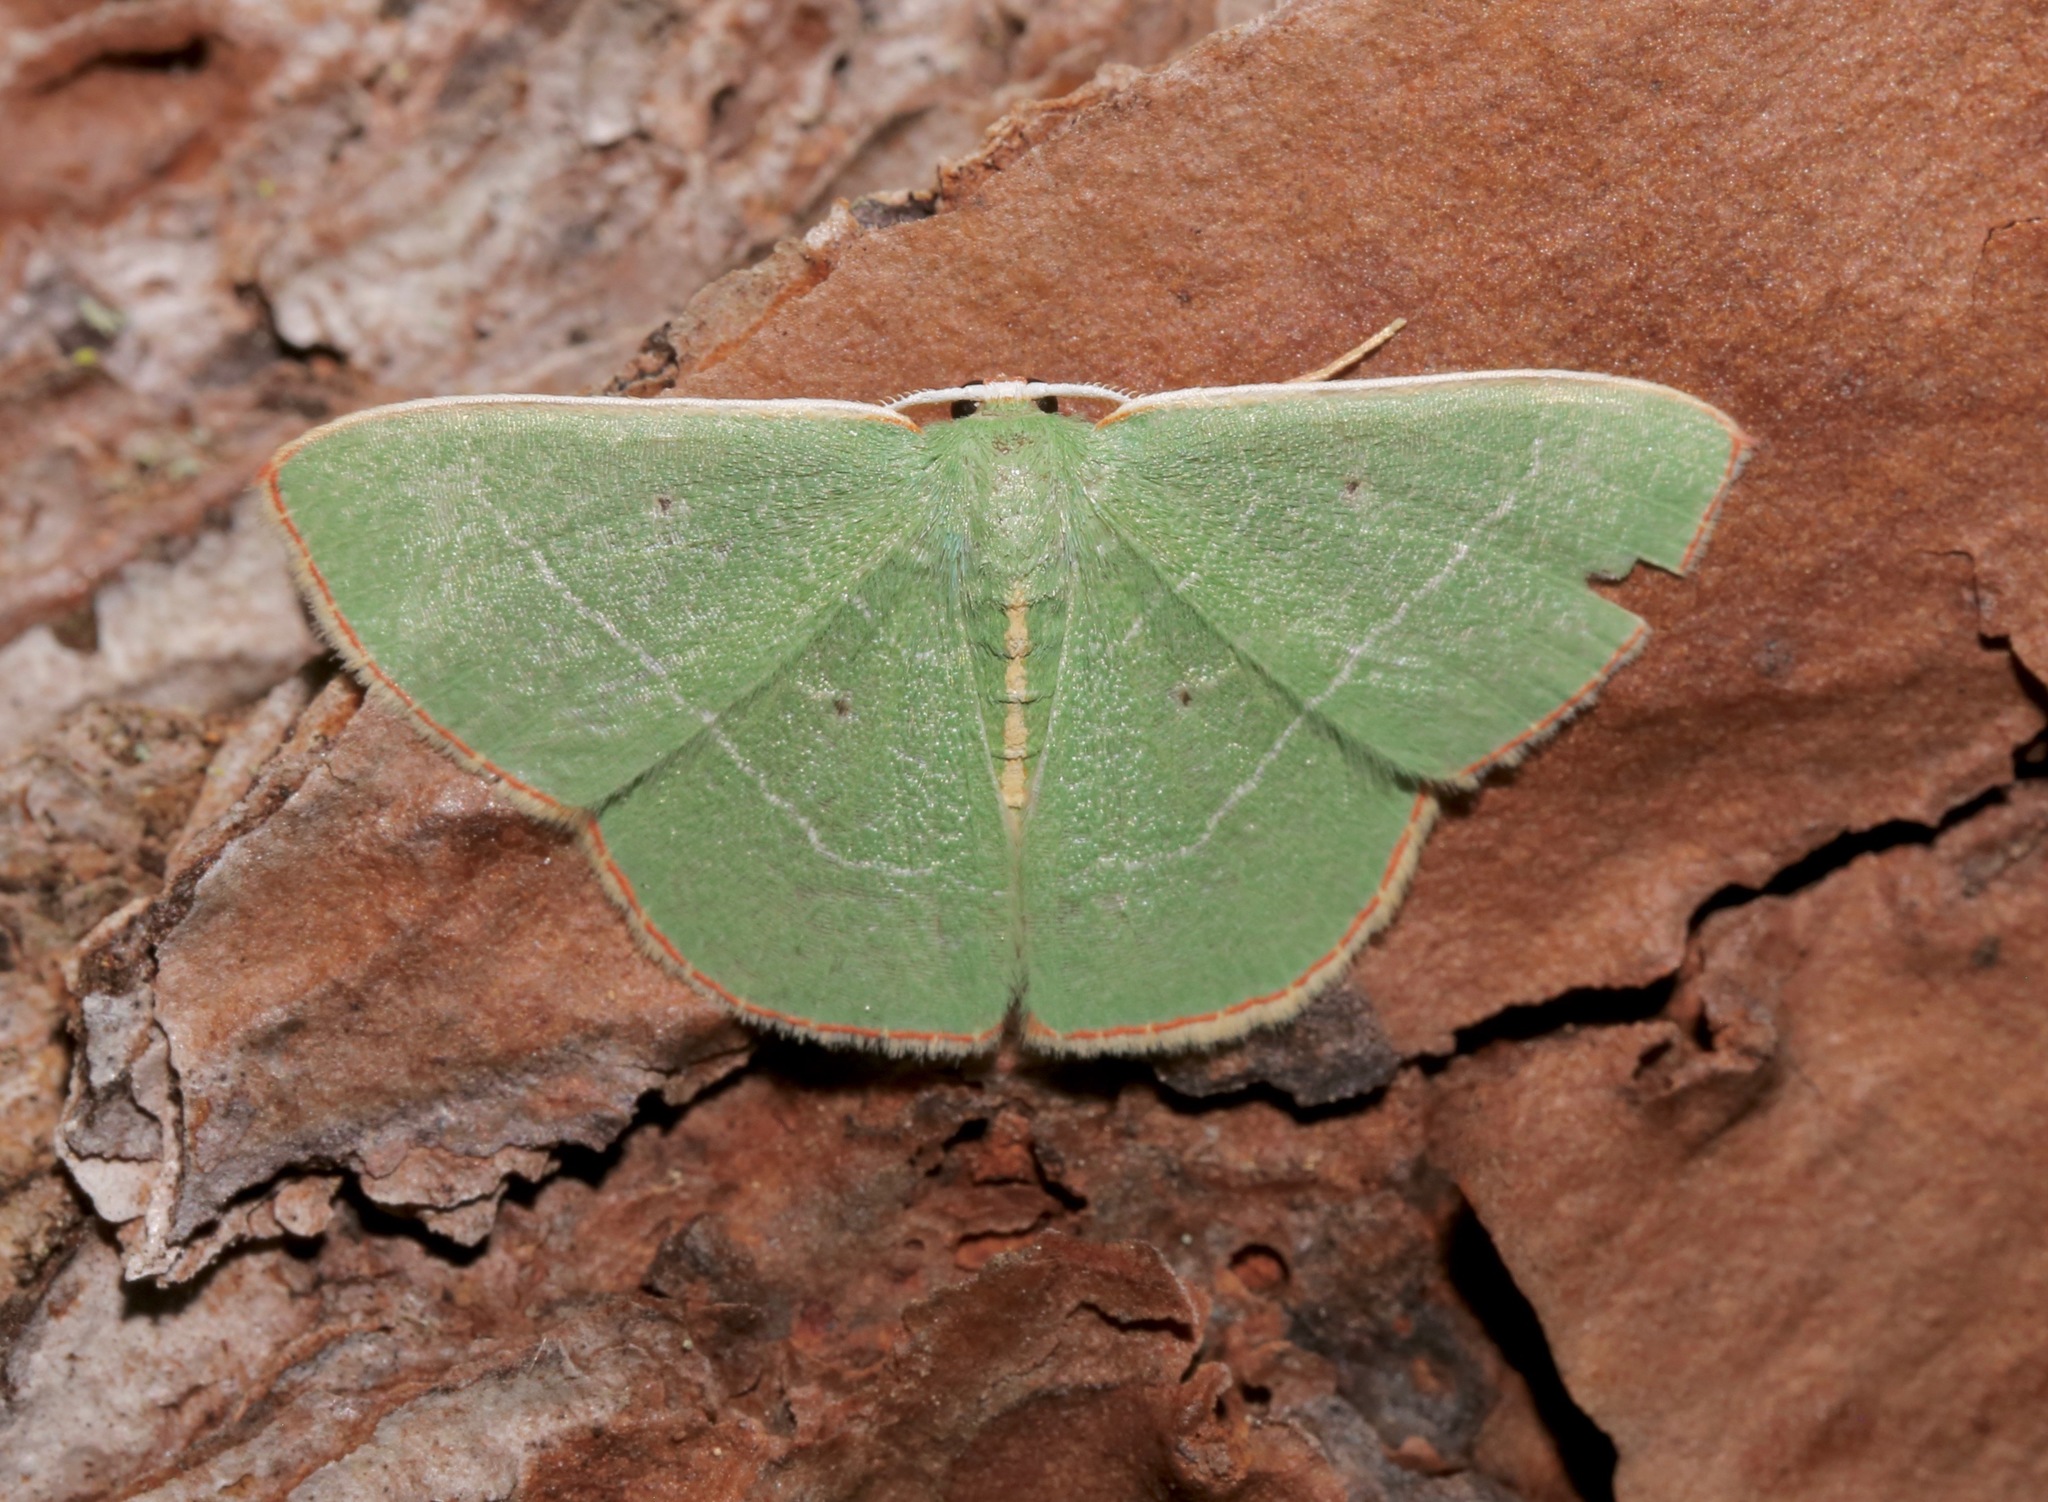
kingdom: Animalia
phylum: Arthropoda
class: Insecta
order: Lepidoptera
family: Geometridae
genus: Nemoria
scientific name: Nemoria bifilata
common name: White-barred emerald moth
